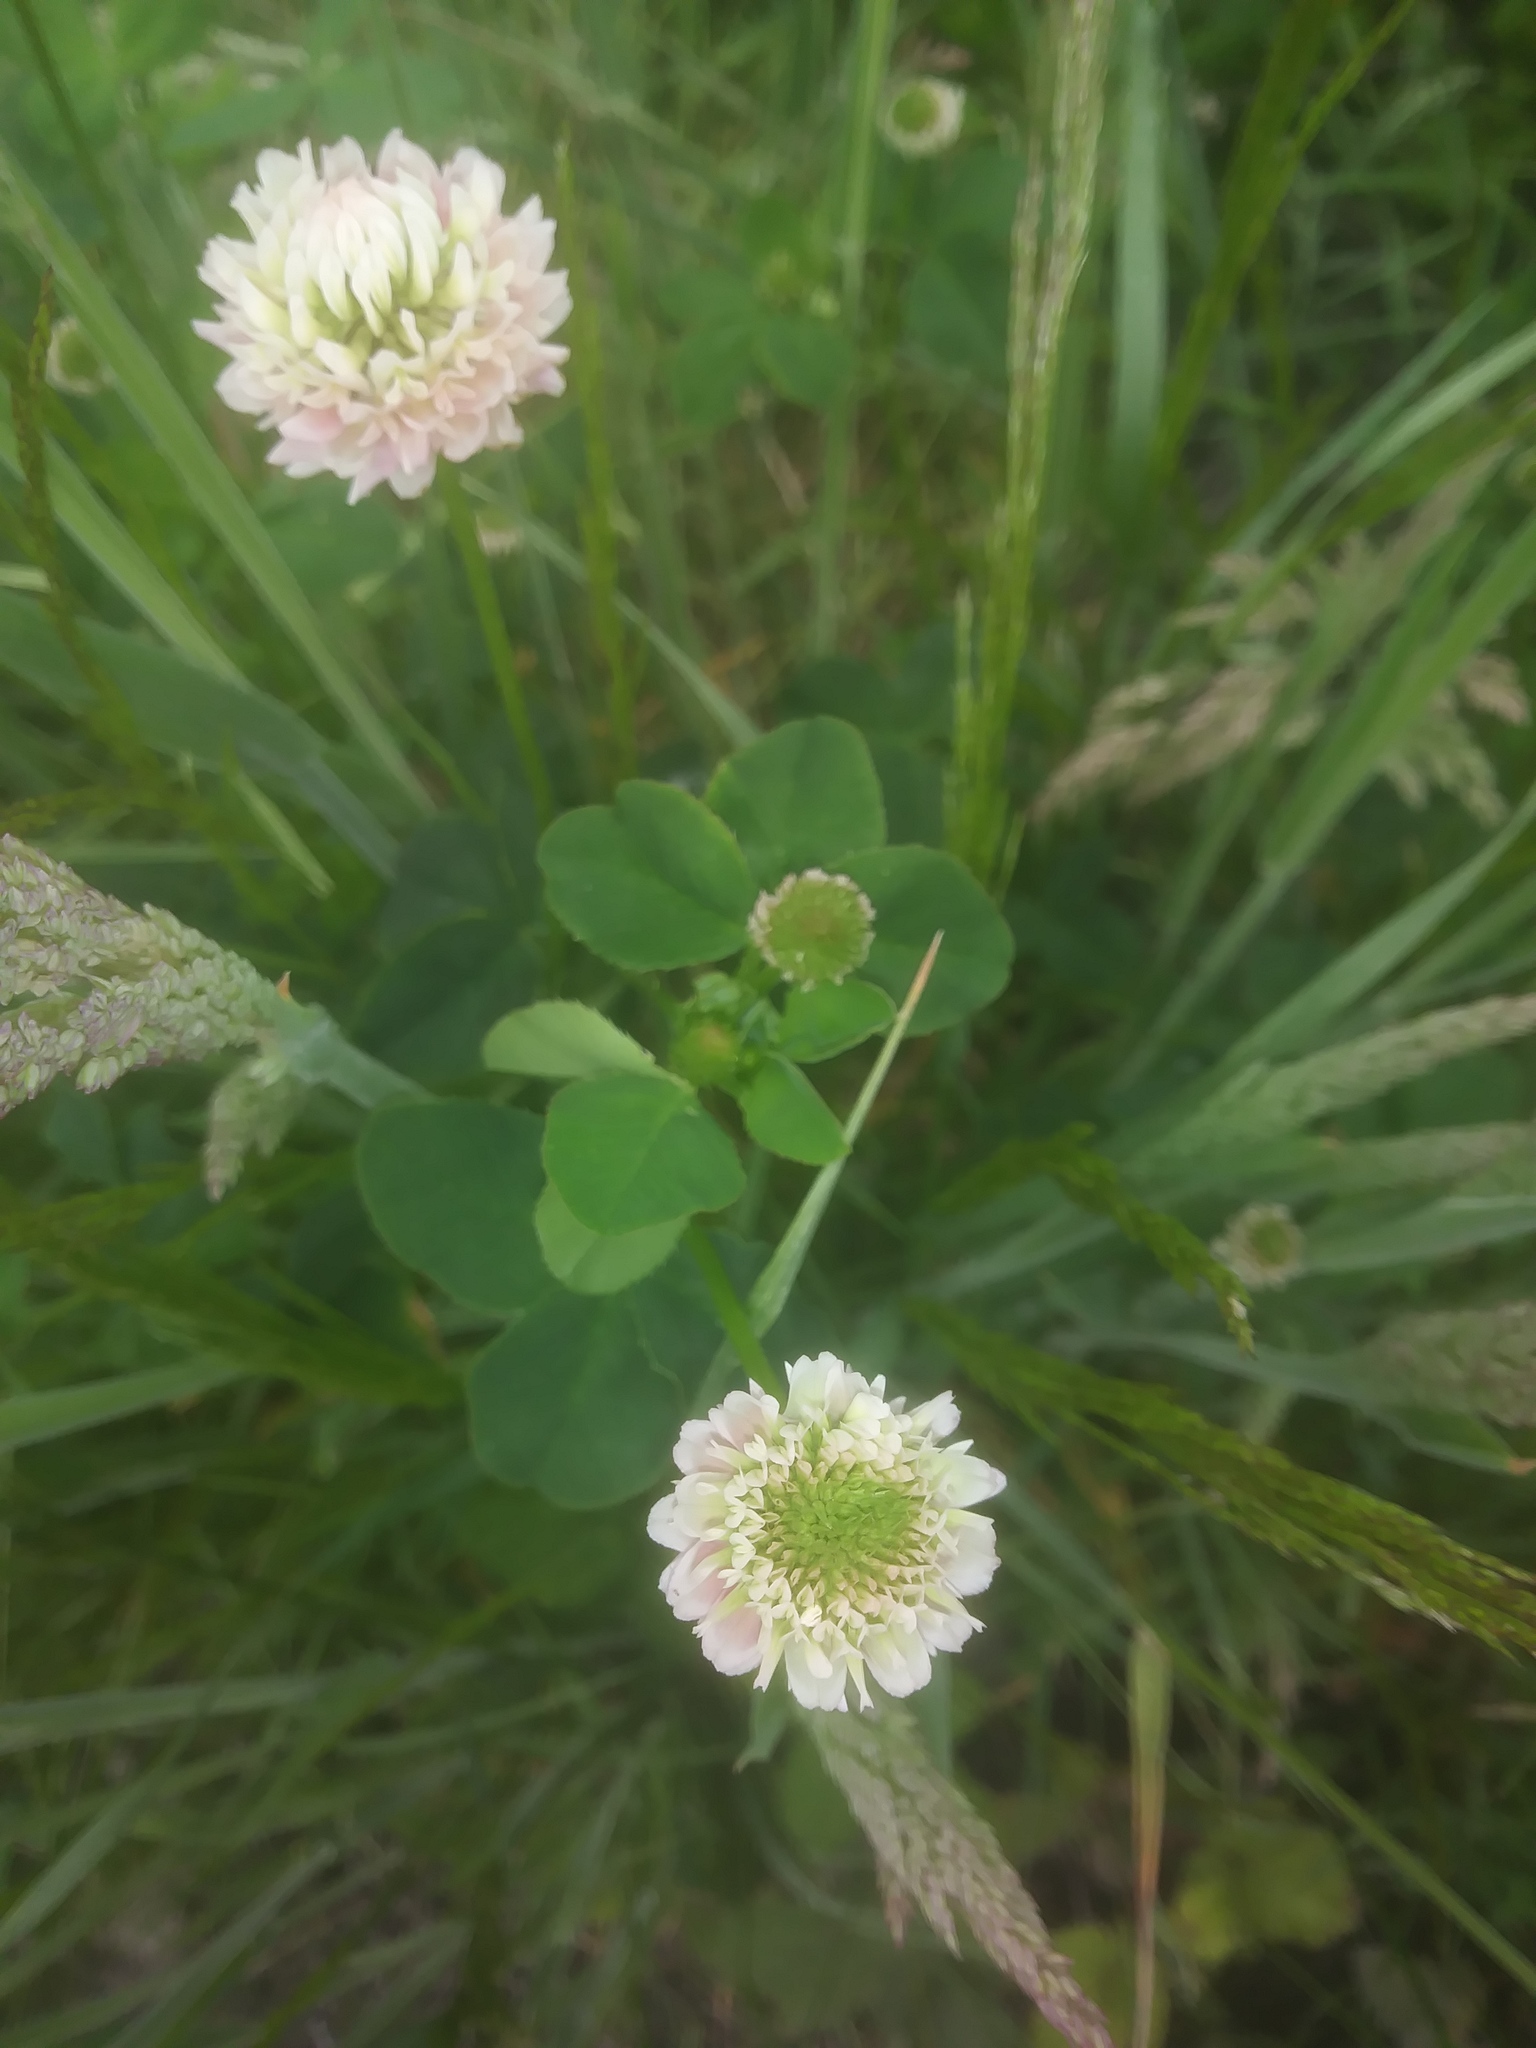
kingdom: Plantae
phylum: Tracheophyta
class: Magnoliopsida
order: Fabales
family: Fabaceae
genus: Trifolium
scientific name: Trifolium hybridum
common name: Alsike clover
